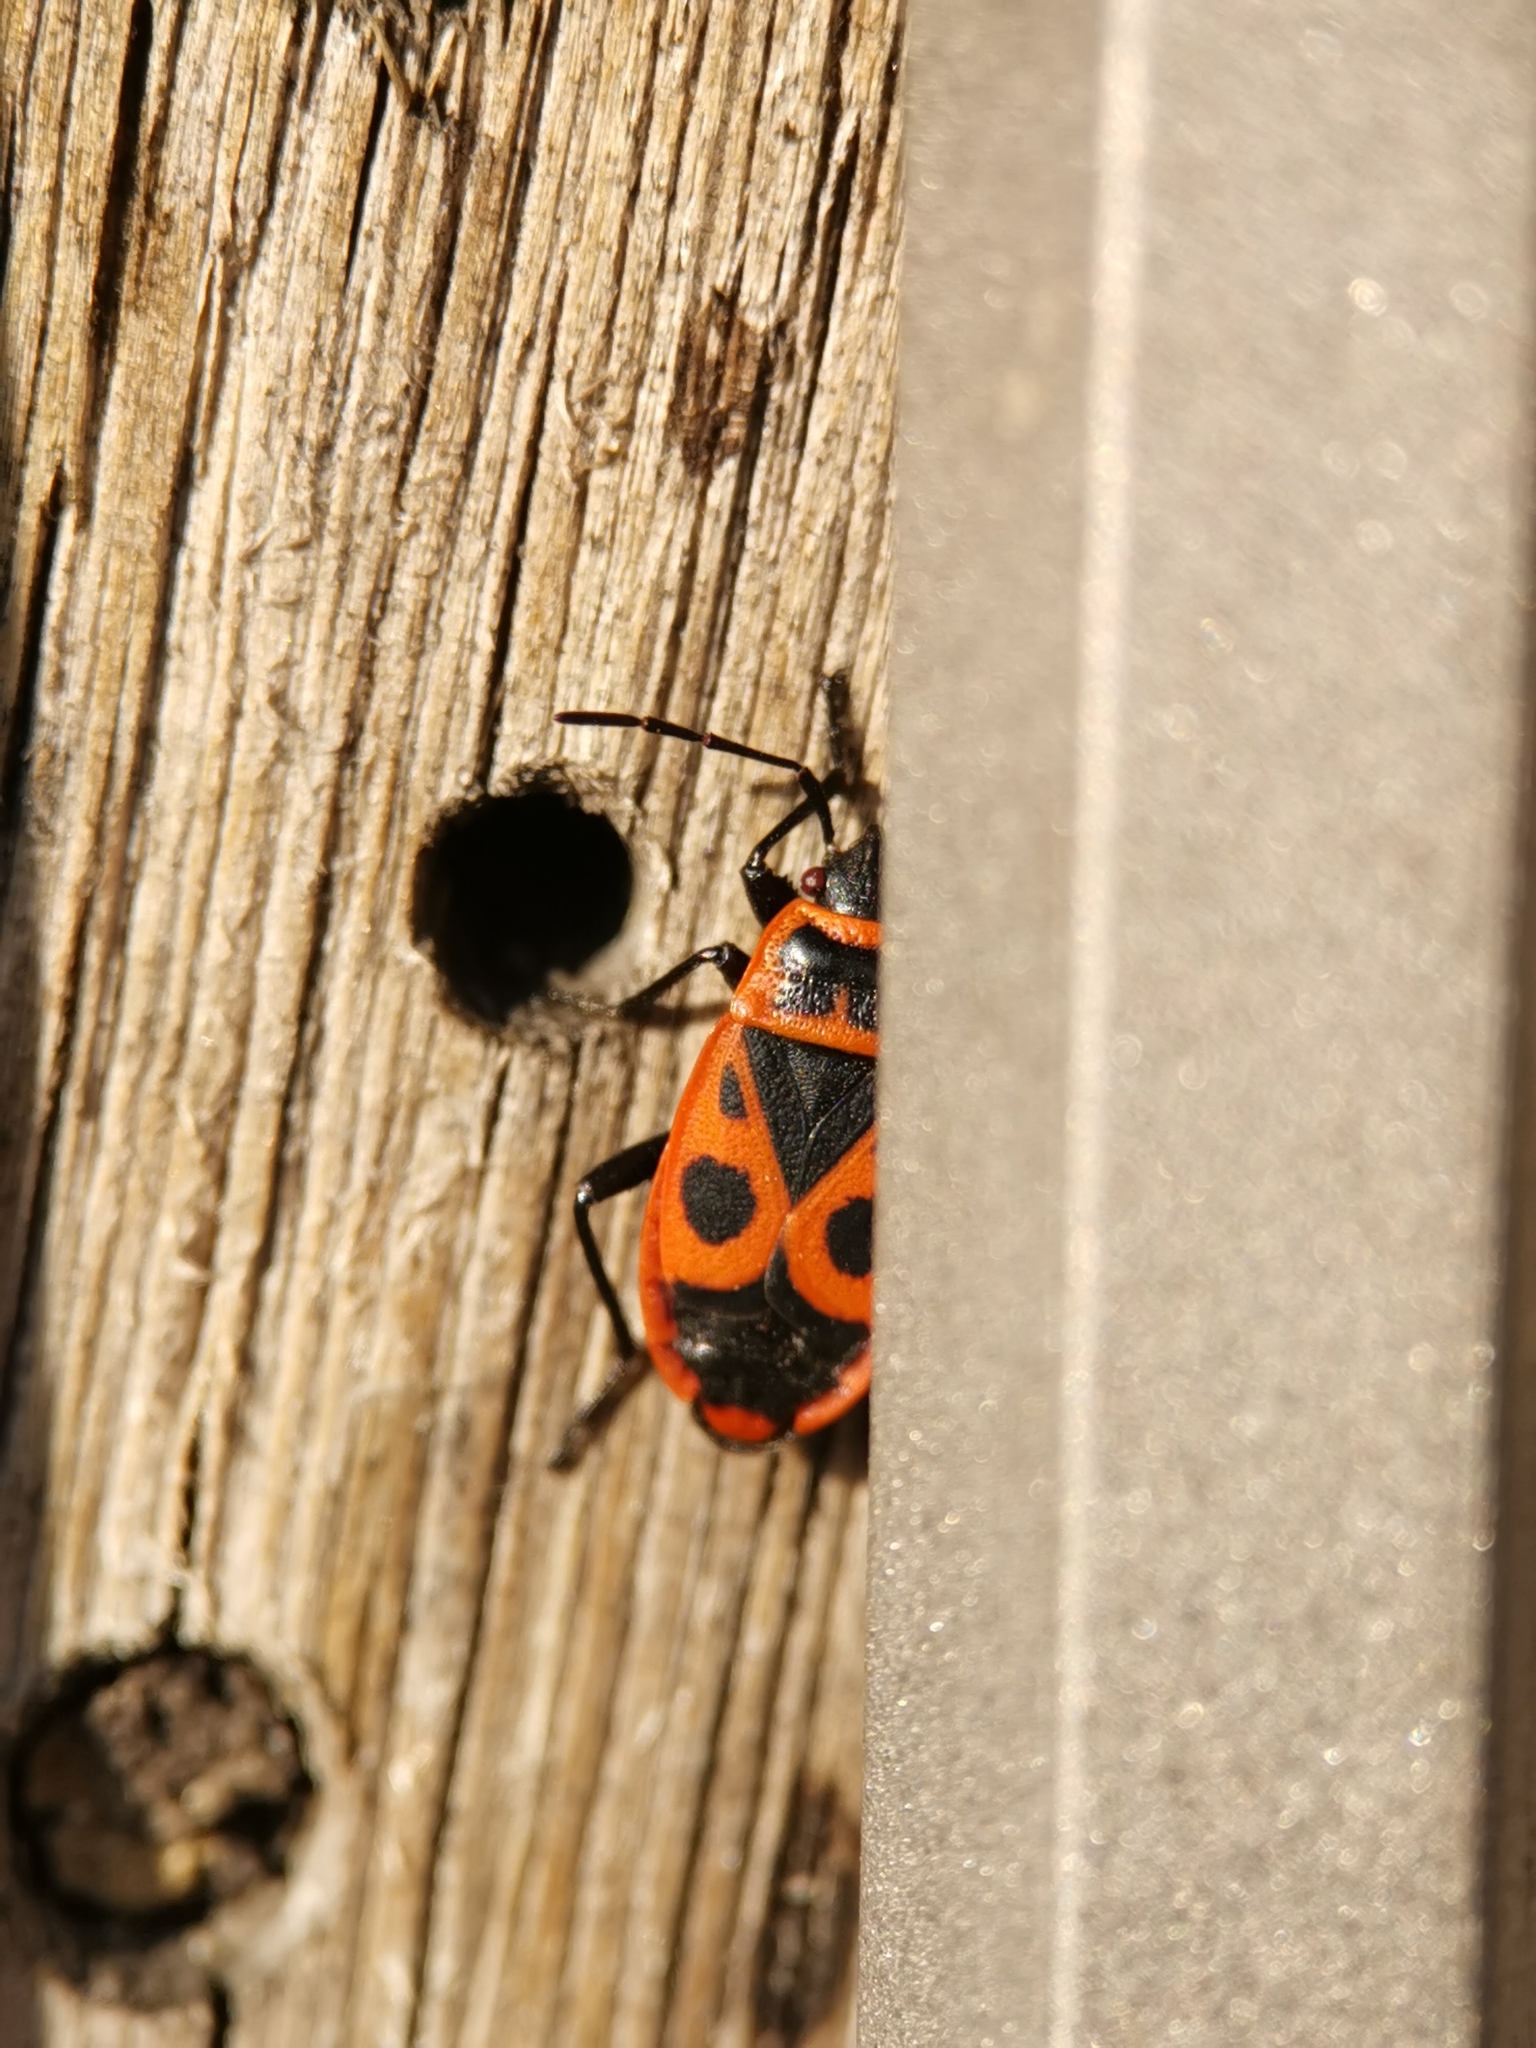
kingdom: Animalia
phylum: Arthropoda
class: Insecta
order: Hemiptera
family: Pyrrhocoridae
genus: Pyrrhocoris
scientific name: Pyrrhocoris apterus
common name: Firebug
